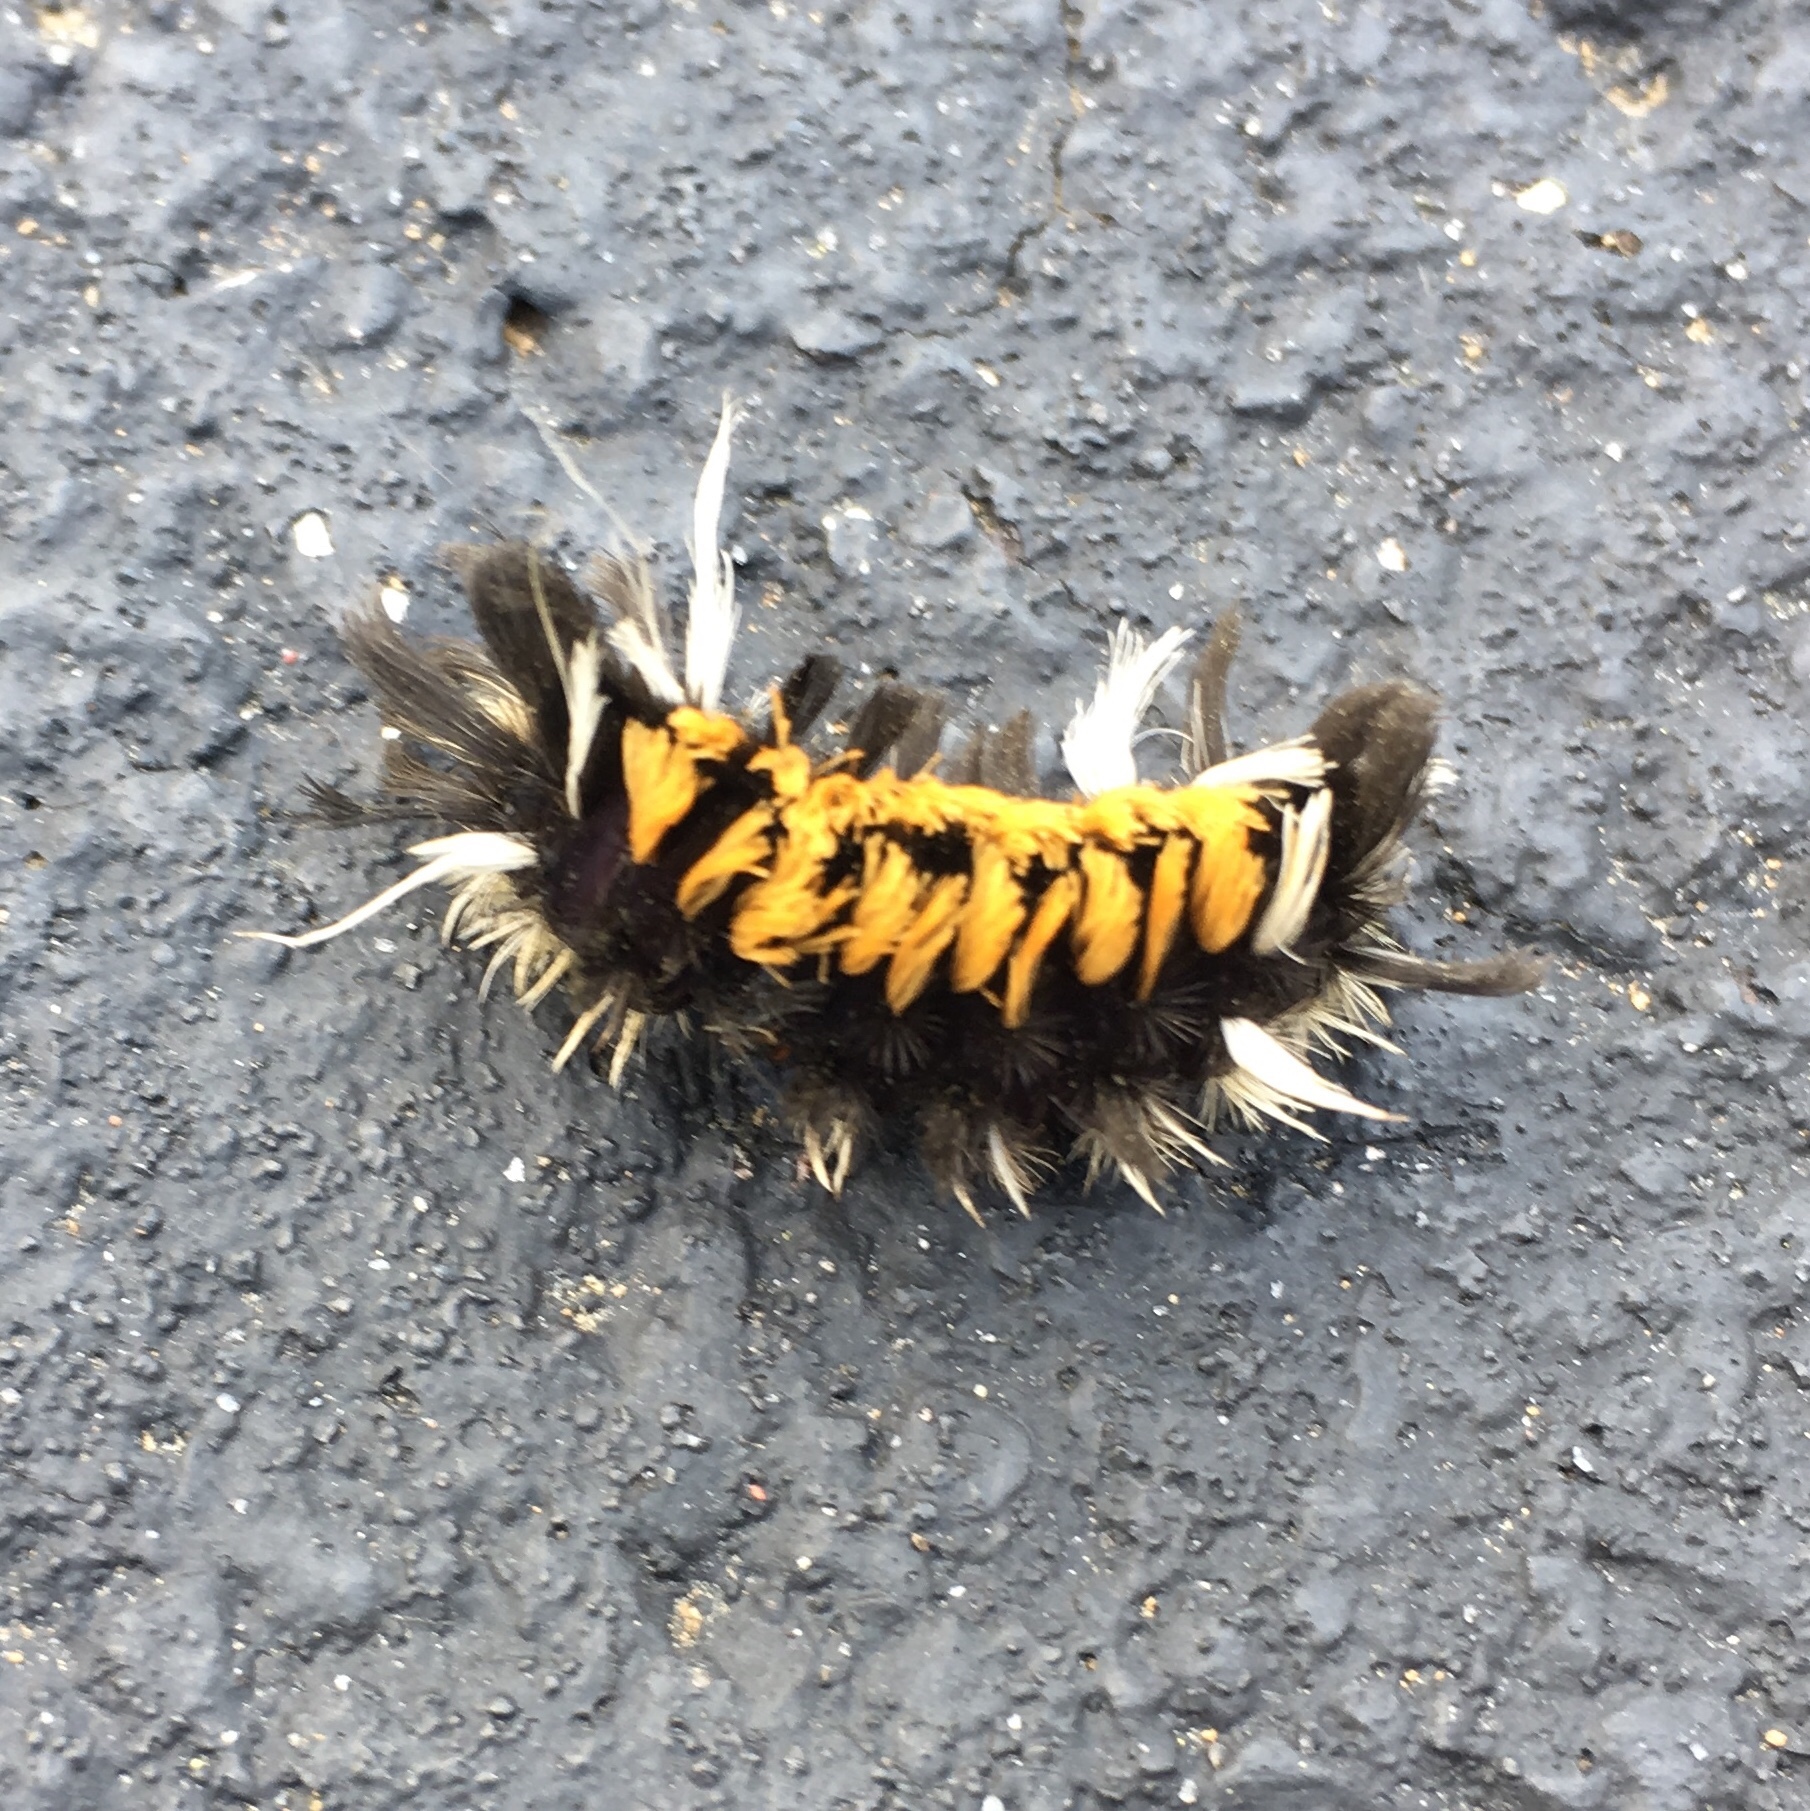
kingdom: Animalia
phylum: Arthropoda
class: Insecta
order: Lepidoptera
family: Erebidae
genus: Euchaetes
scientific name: Euchaetes egle
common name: Milkweed tussock moth
